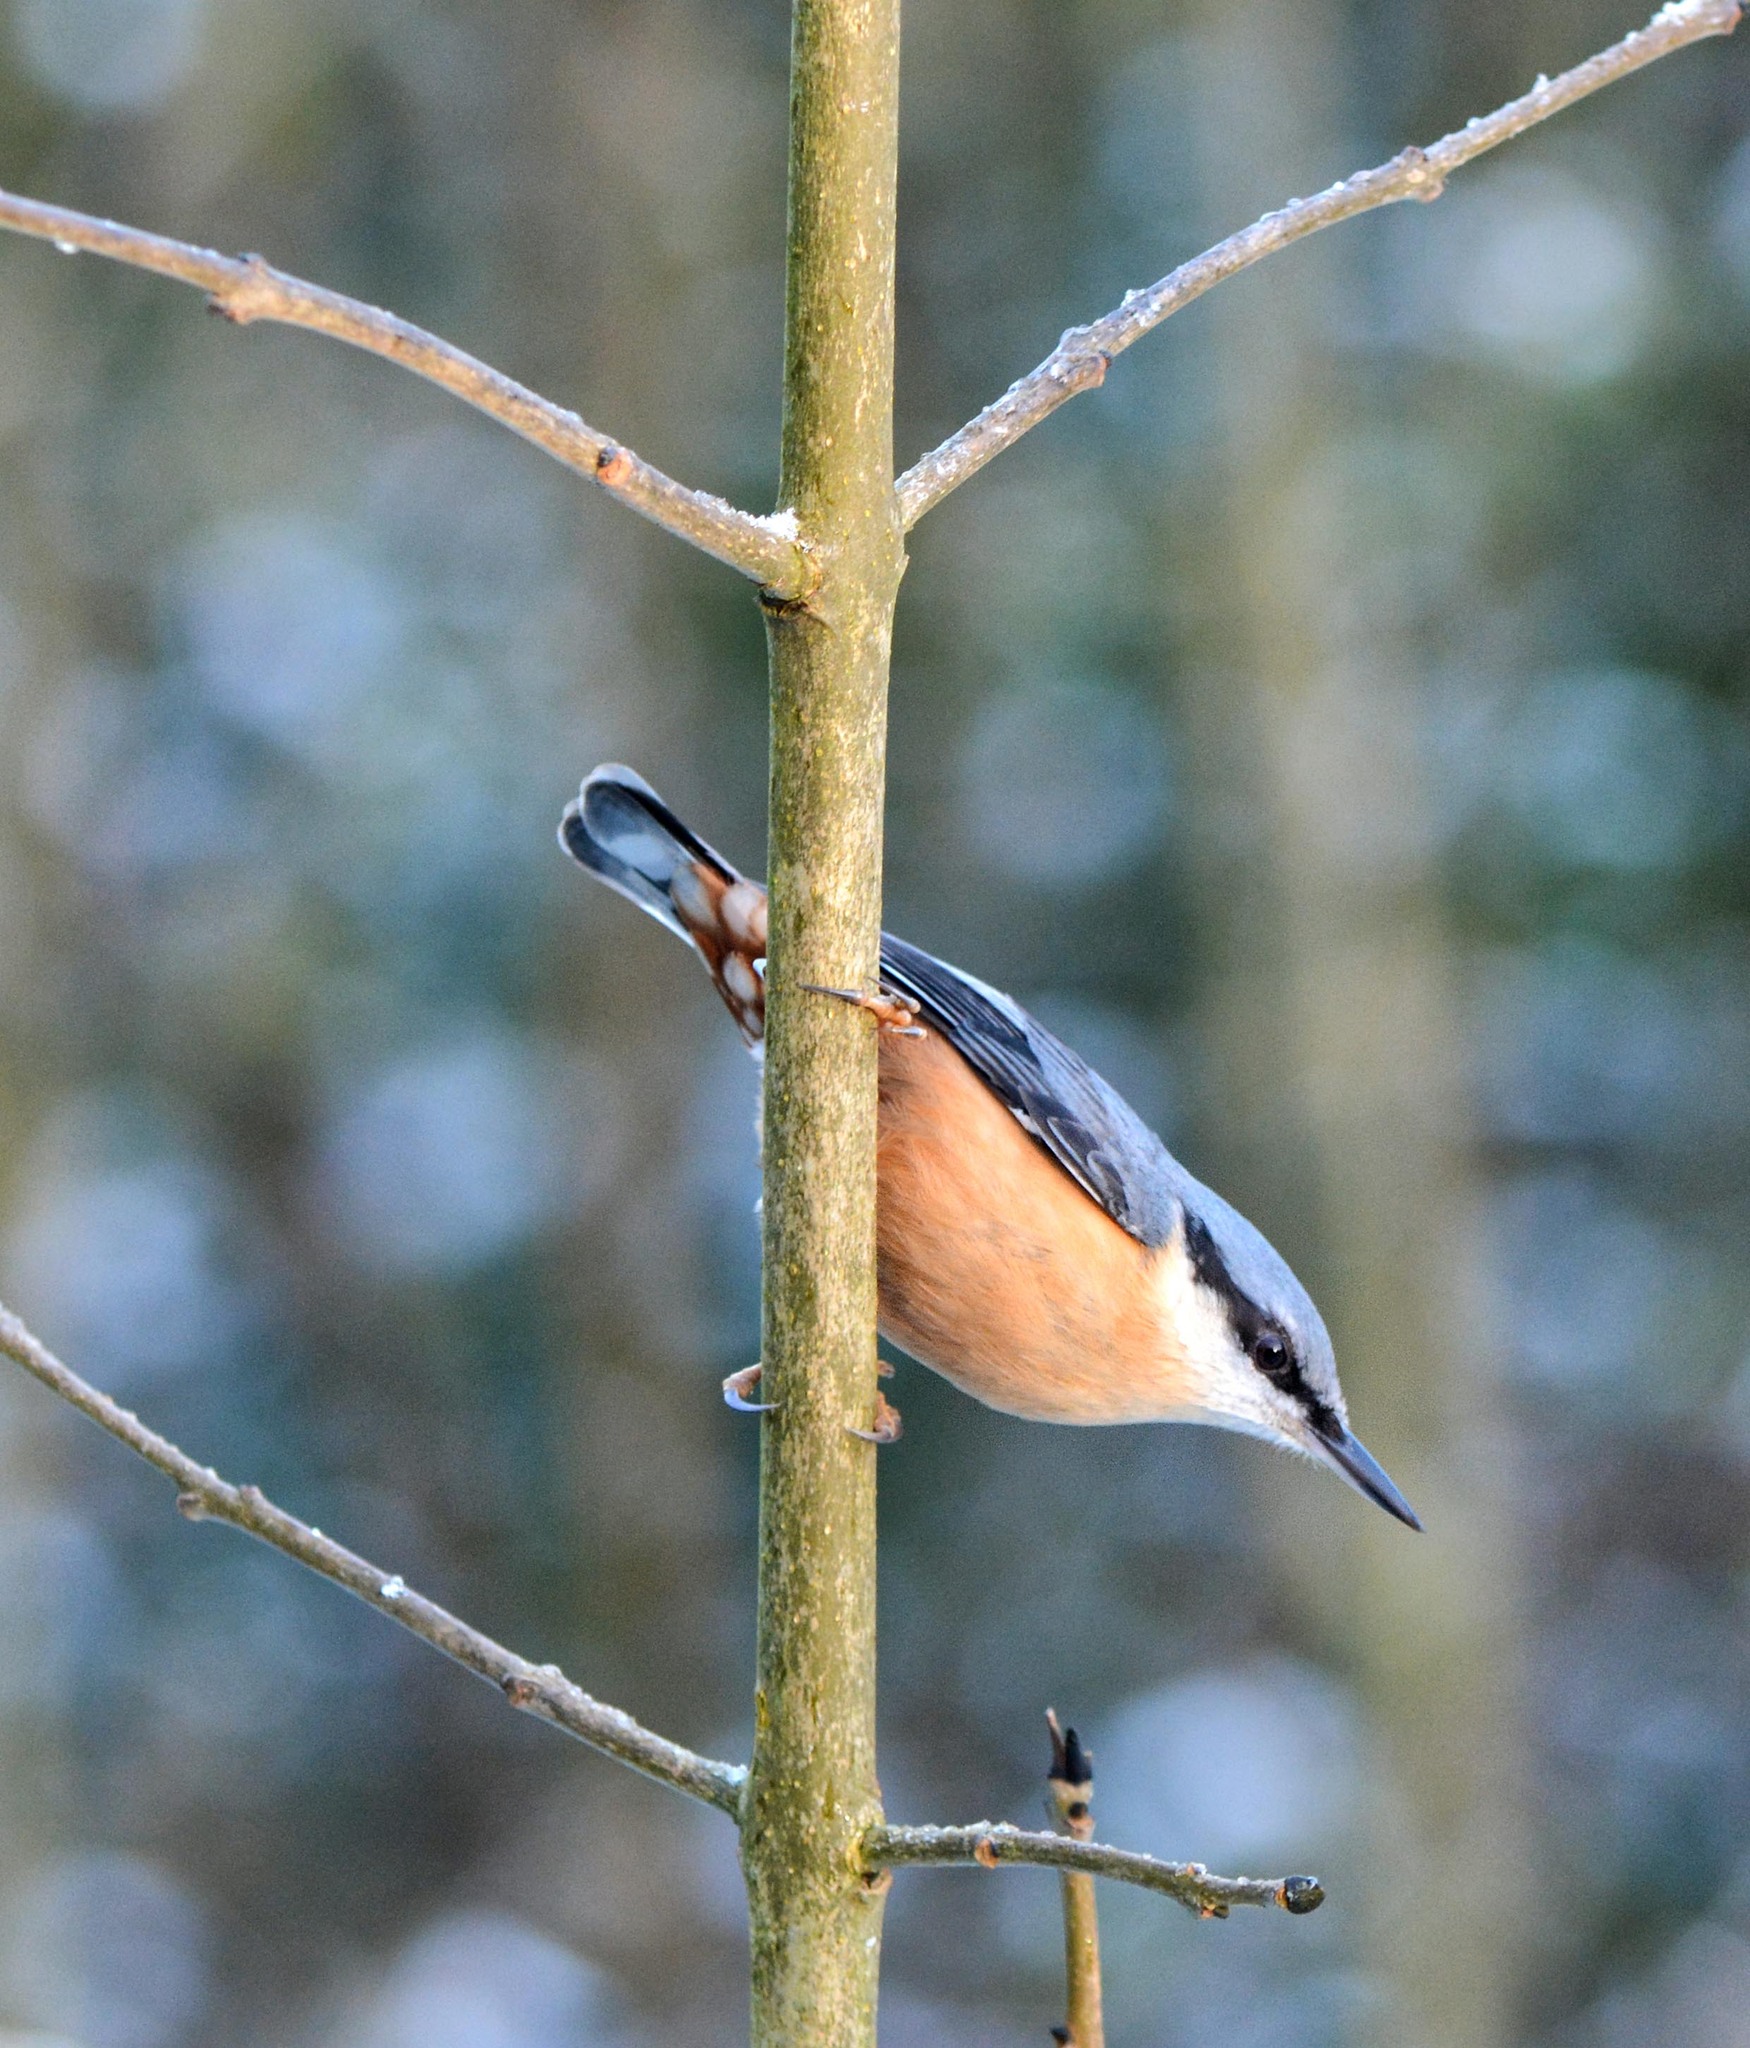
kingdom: Animalia
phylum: Chordata
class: Aves
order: Passeriformes
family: Sittidae
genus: Sitta
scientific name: Sitta europaea
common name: Eurasian nuthatch
